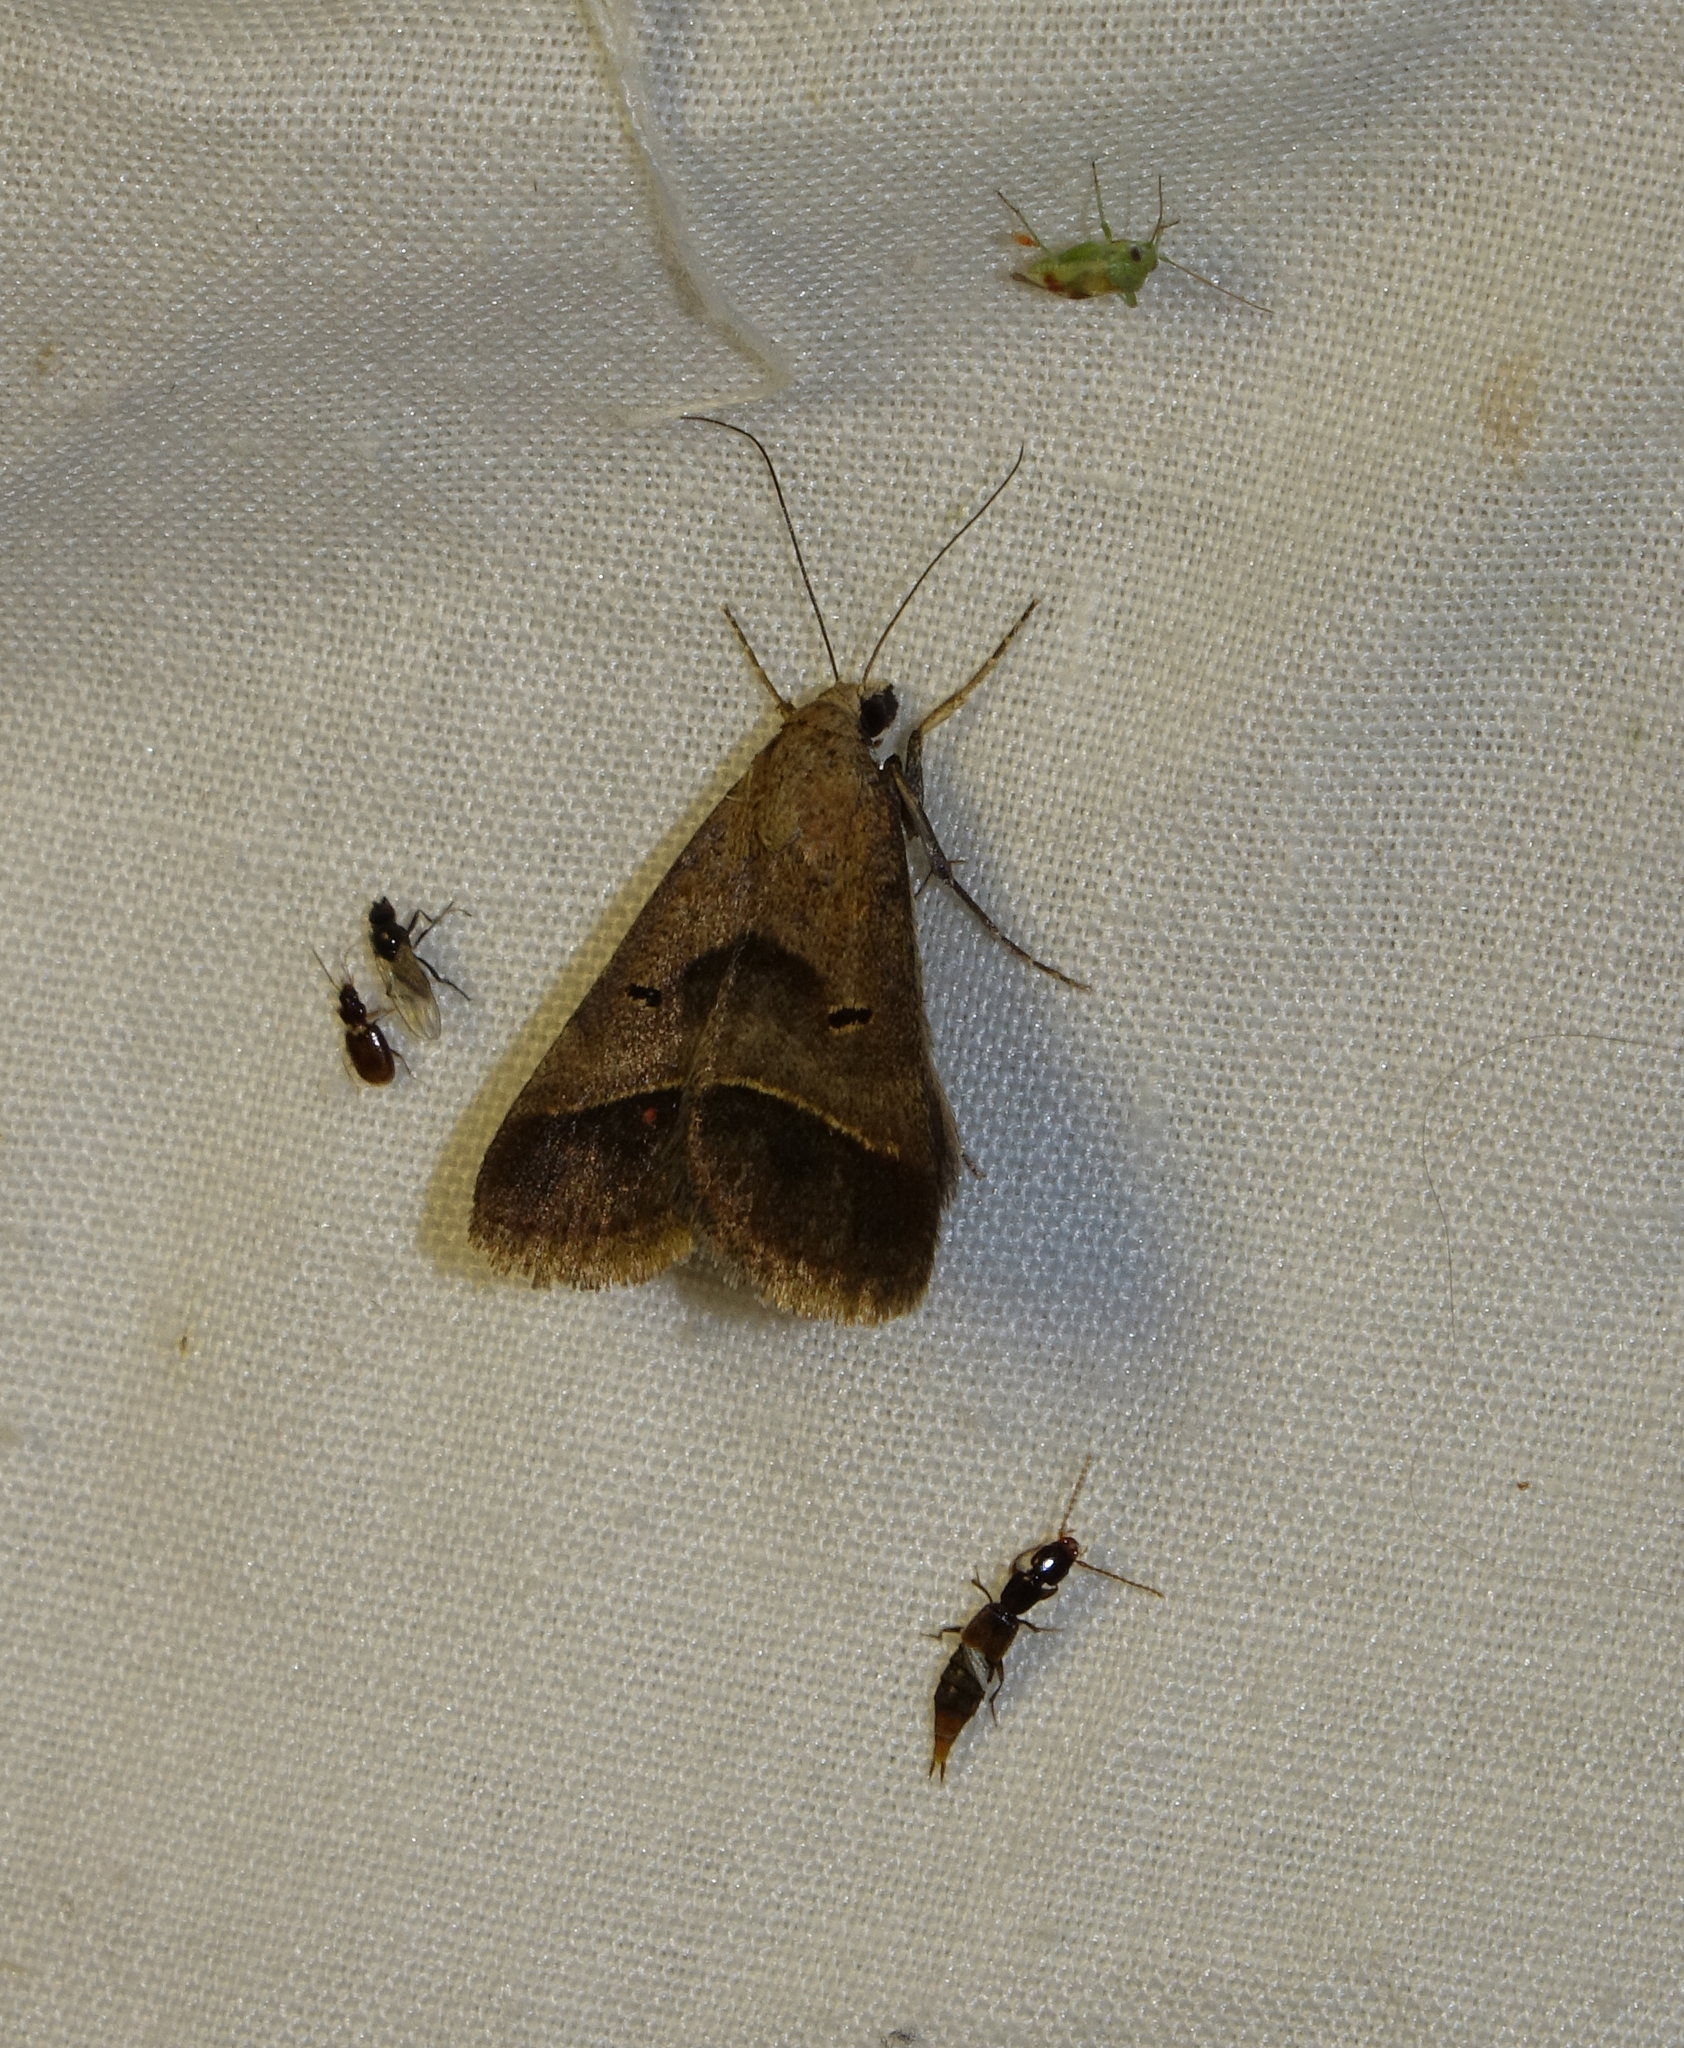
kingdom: Animalia
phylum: Arthropoda
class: Insecta
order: Lepidoptera
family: Erebidae
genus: Acantholipes
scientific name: Acantholipes regularis
